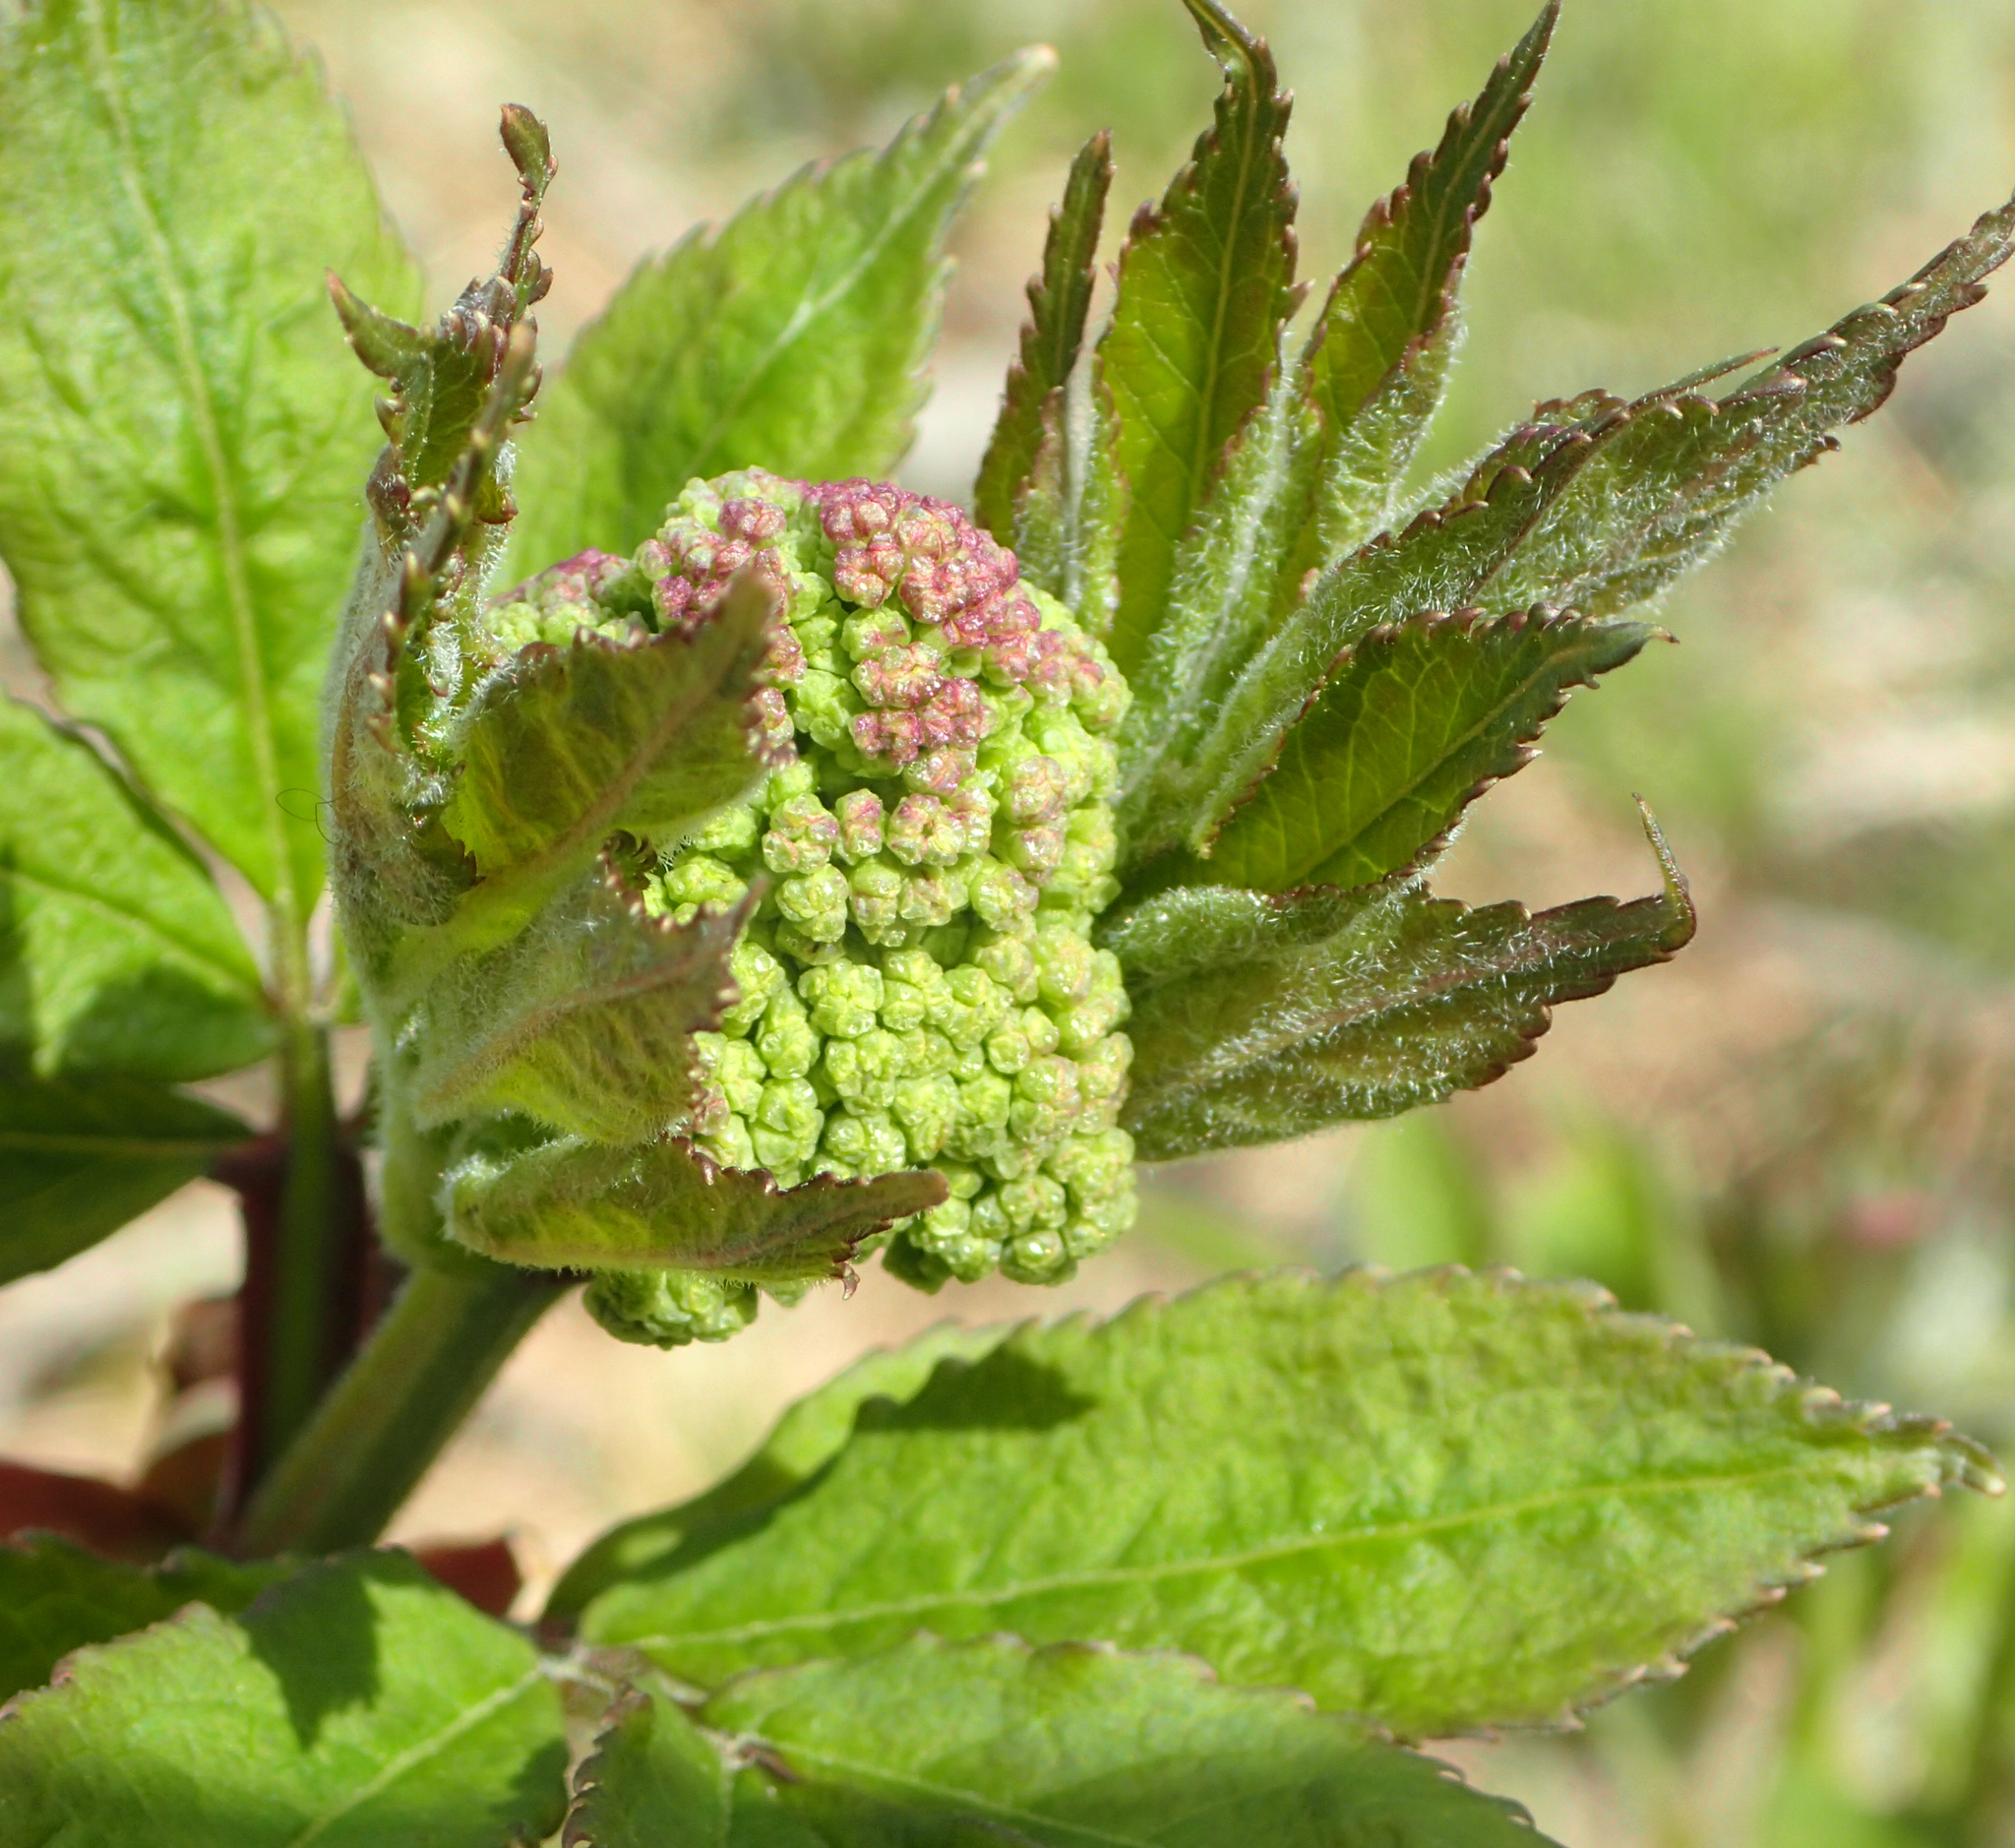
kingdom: Plantae
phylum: Tracheophyta
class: Magnoliopsida
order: Dipsacales
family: Viburnaceae
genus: Sambucus
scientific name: Sambucus racemosa
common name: Red-berried elder
